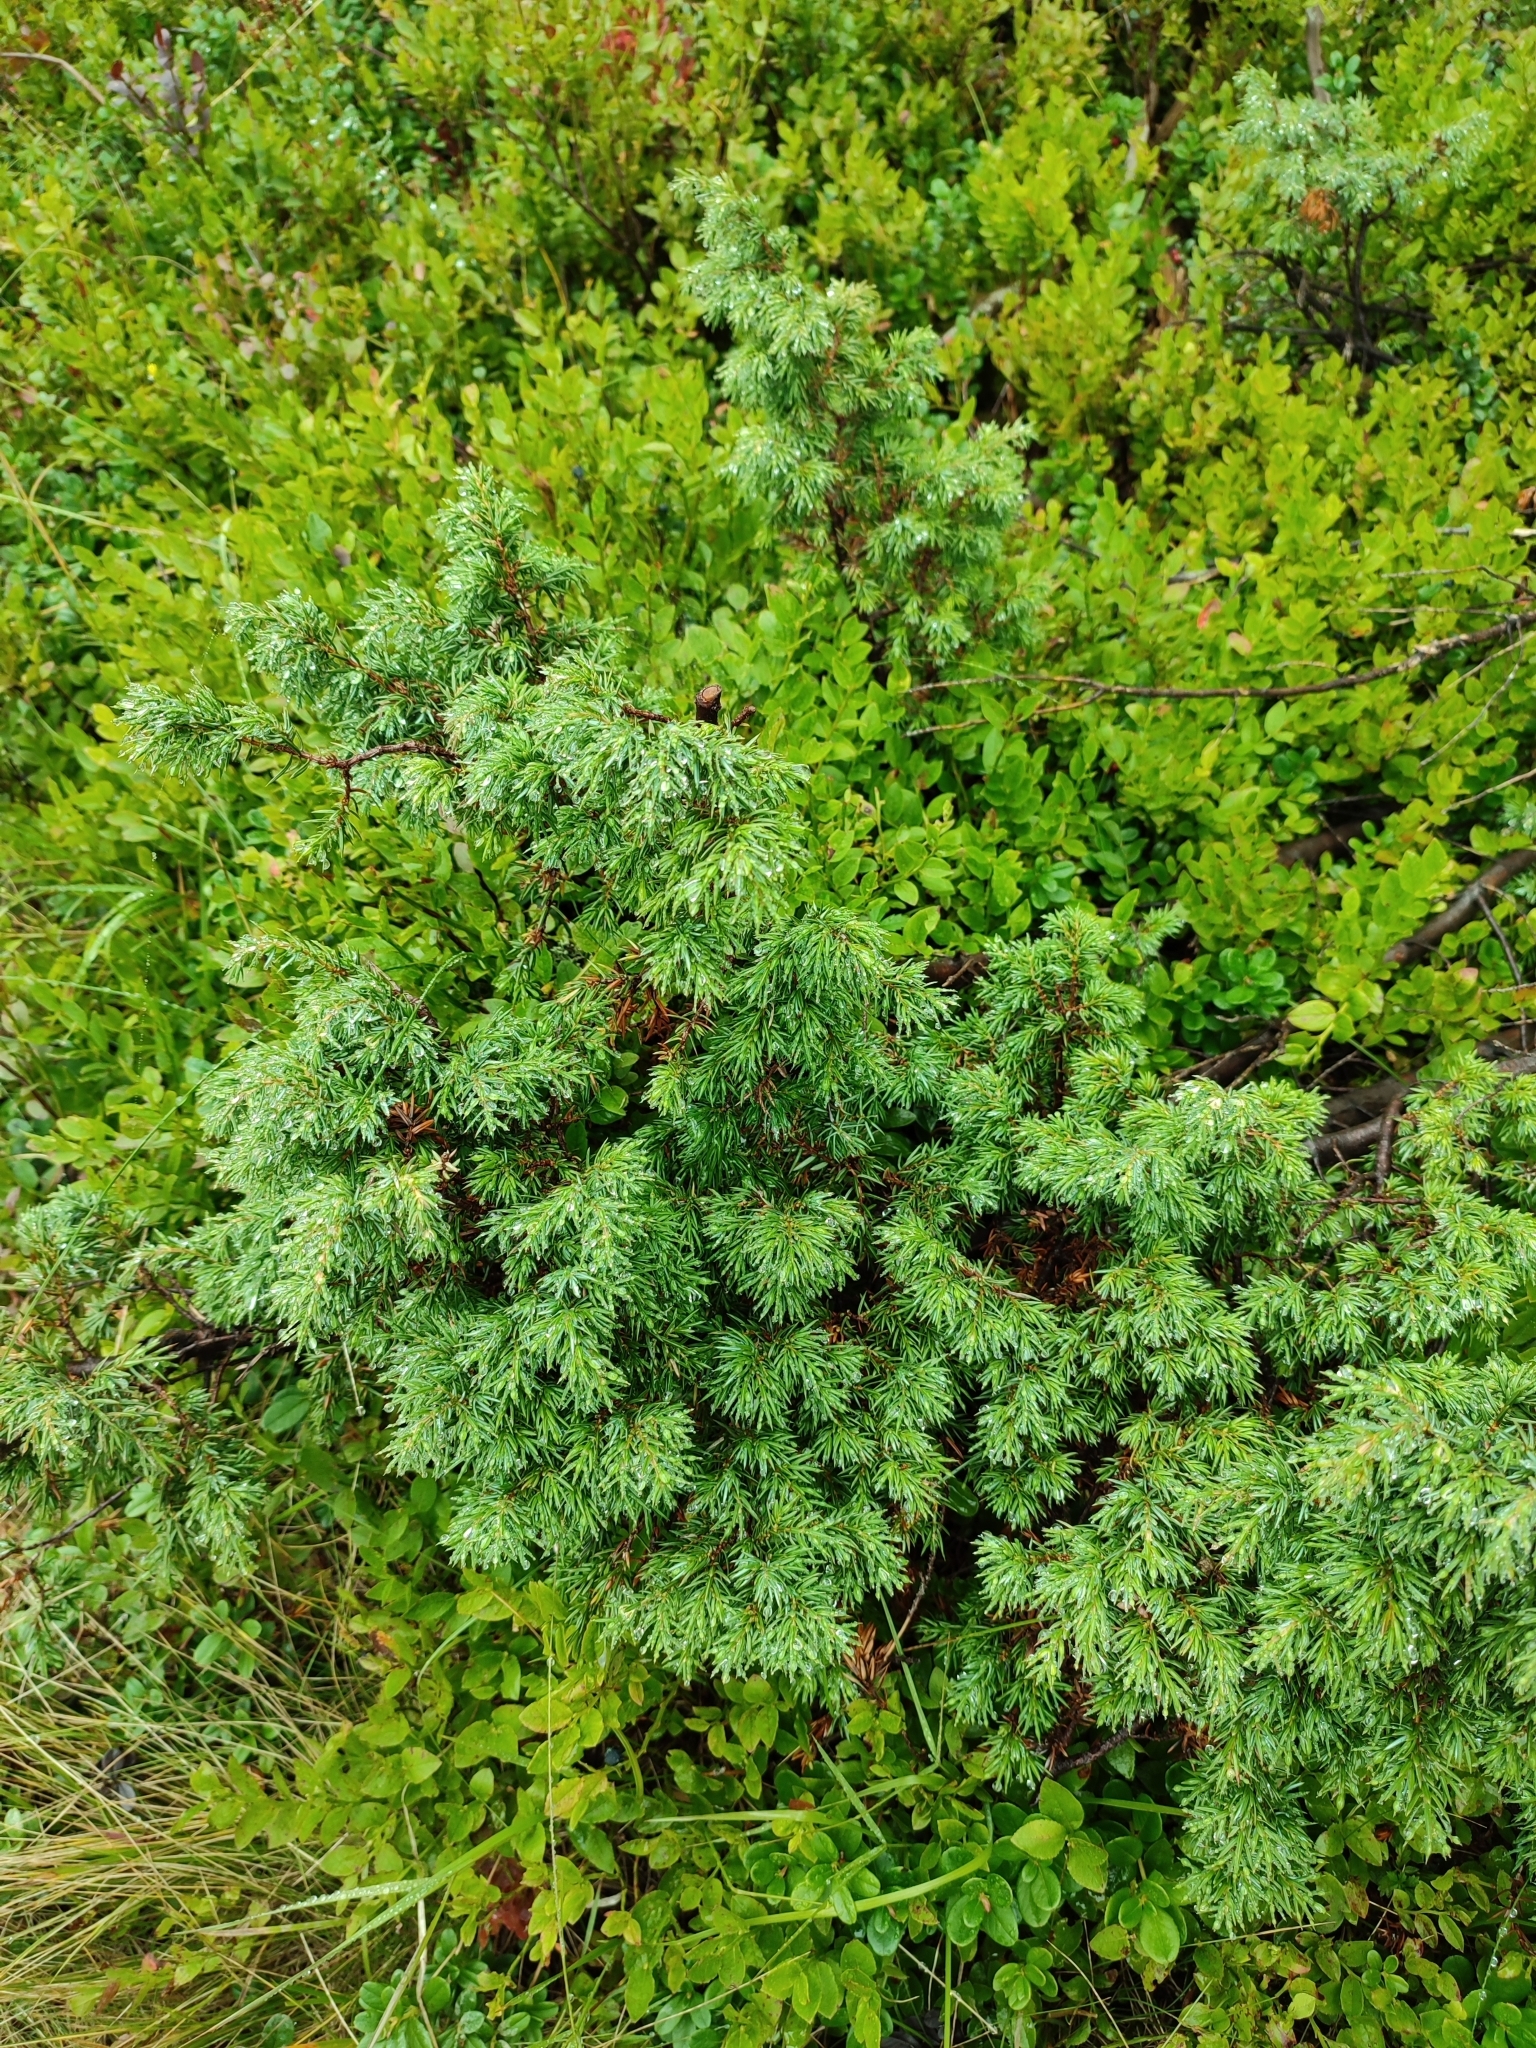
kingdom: Plantae
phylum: Tracheophyta
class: Pinopsida
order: Pinales
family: Cupressaceae
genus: Juniperus
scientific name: Juniperus communis
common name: Common juniper
